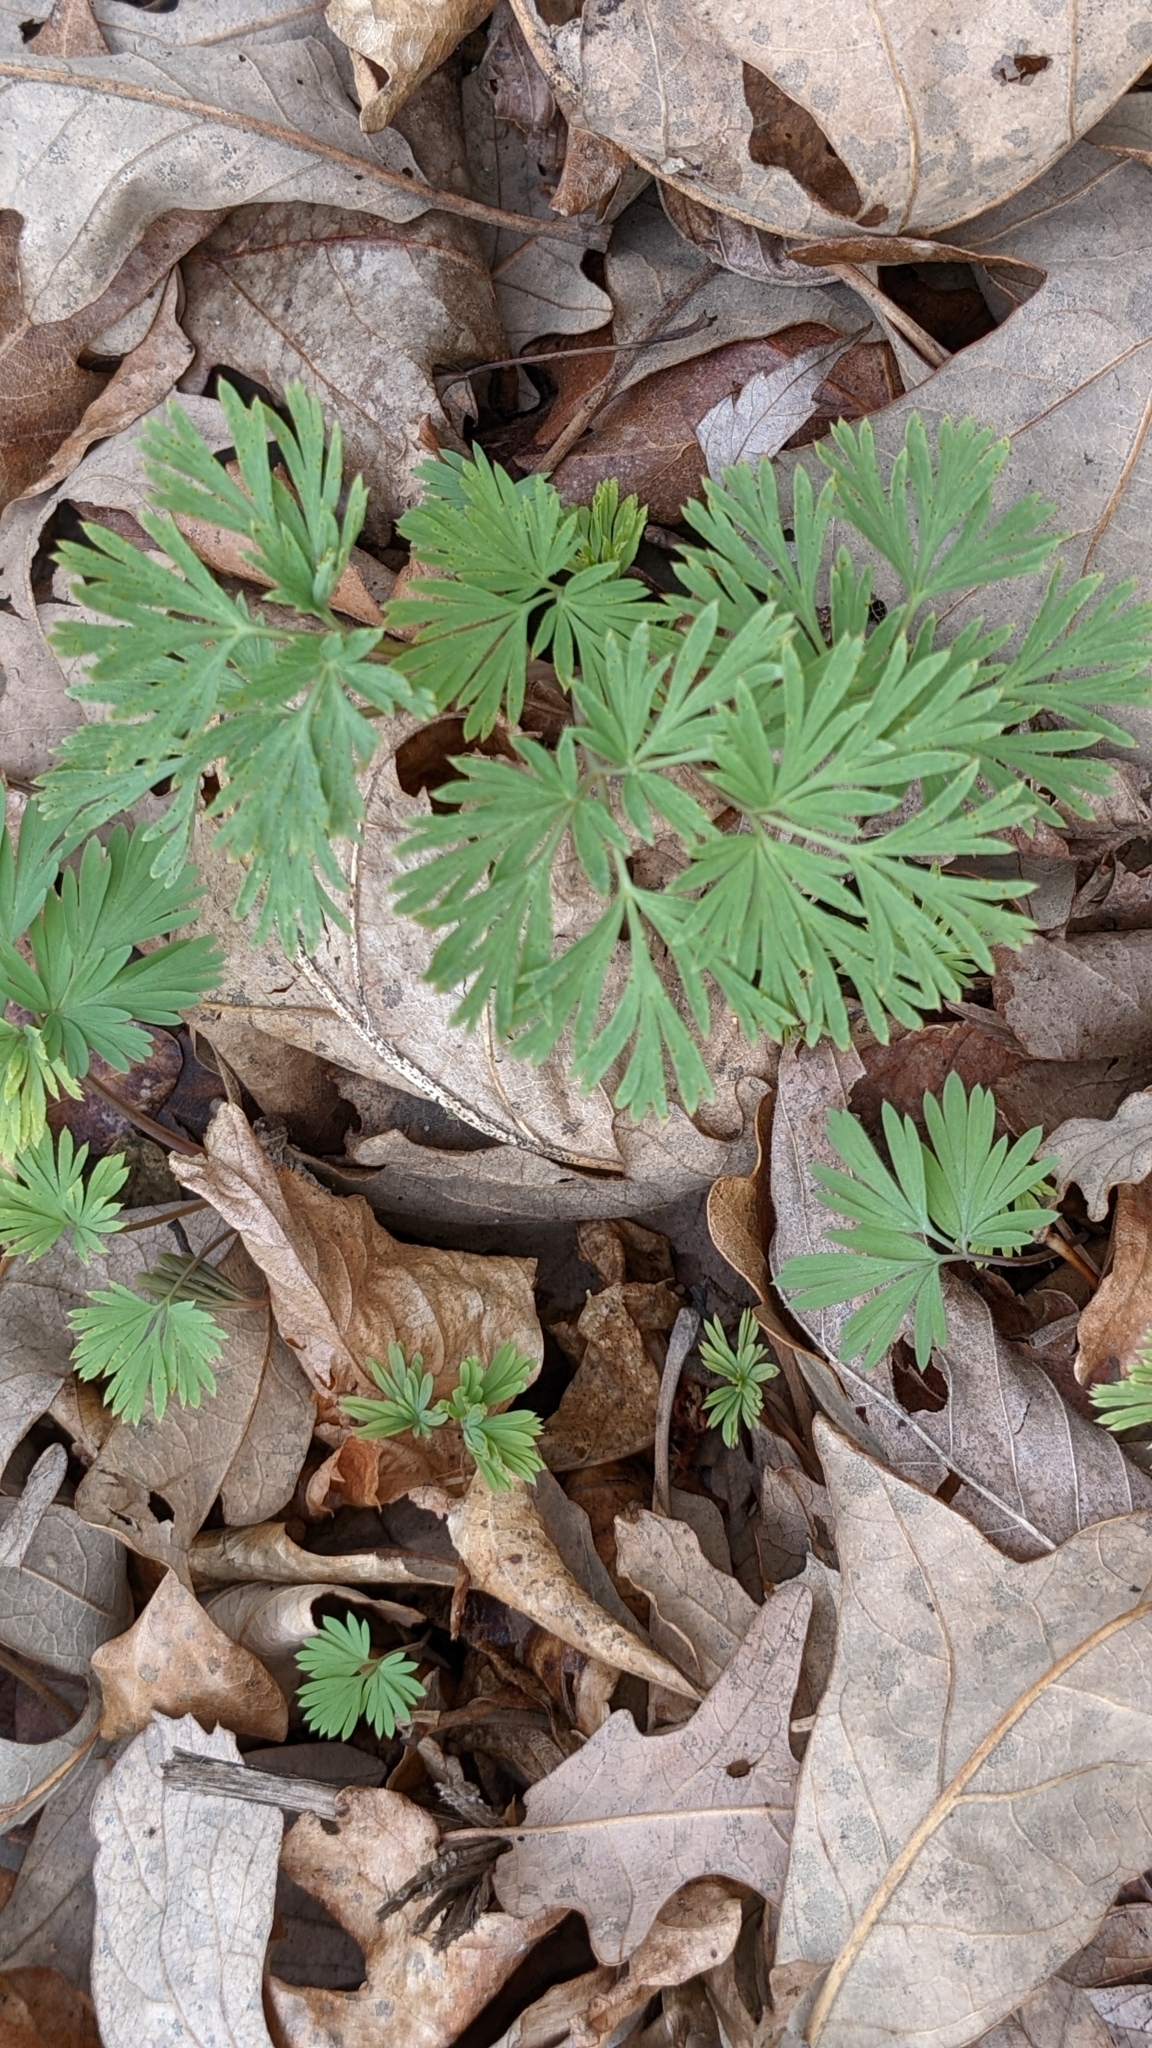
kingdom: Plantae
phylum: Tracheophyta
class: Magnoliopsida
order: Ranunculales
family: Papaveraceae
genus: Dicentra
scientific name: Dicentra cucullaria
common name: Dutchman's breeches
